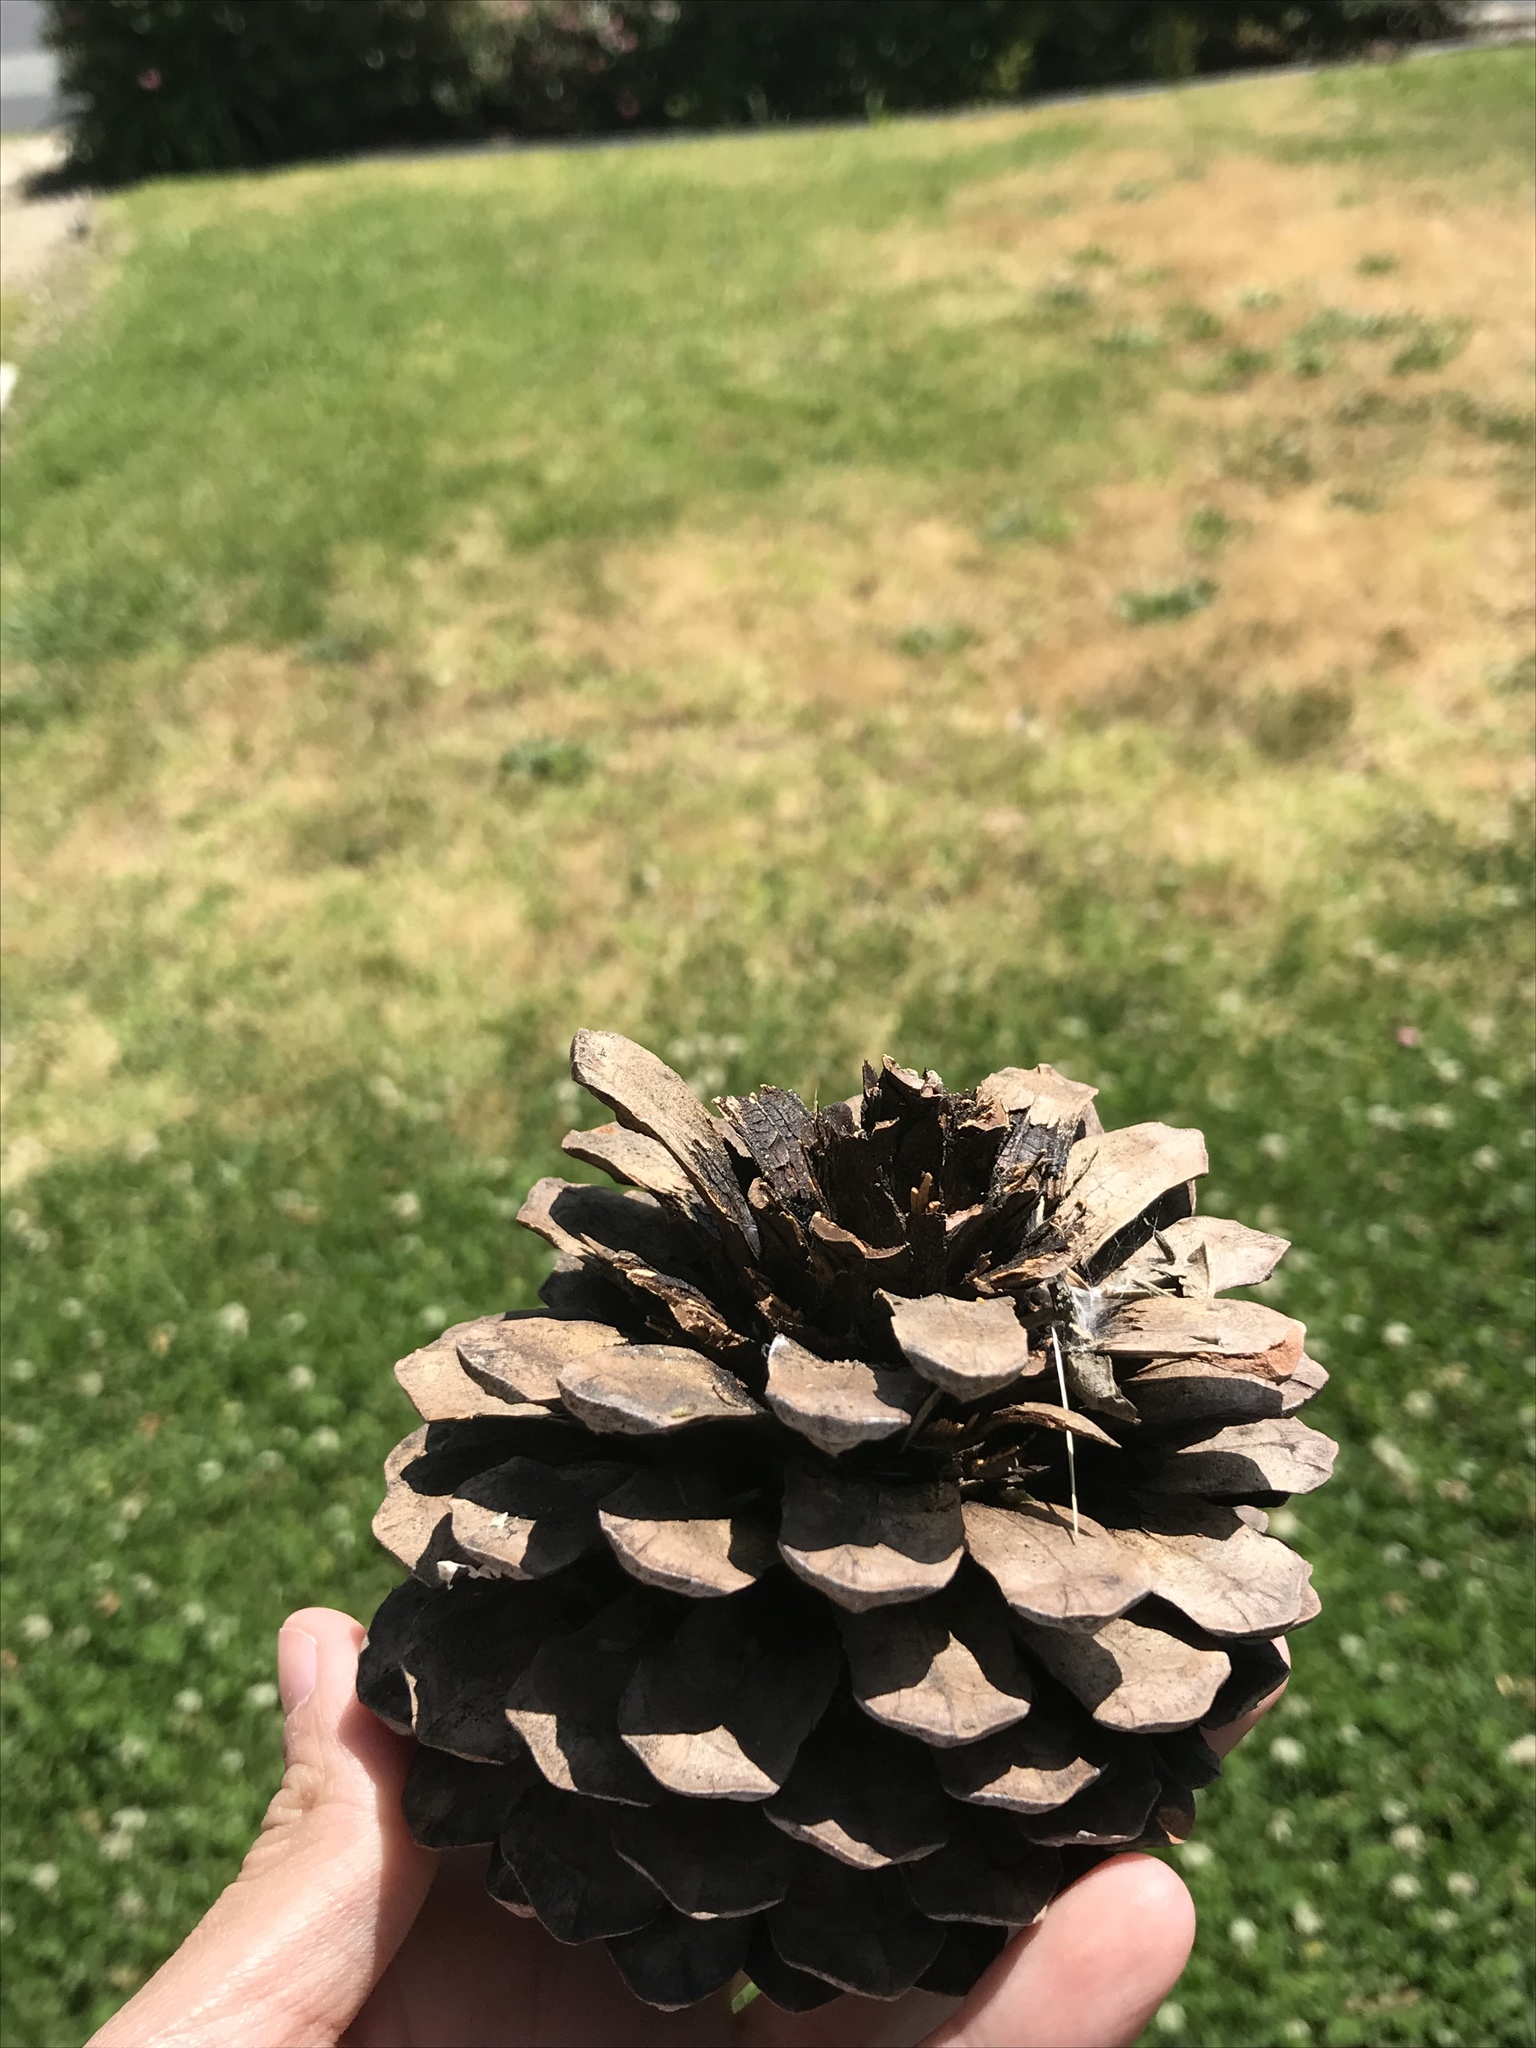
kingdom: Plantae
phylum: Tracheophyta
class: Pinopsida
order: Pinales
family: Pinaceae
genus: Pinus
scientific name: Pinus radiata
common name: Monterey pine
